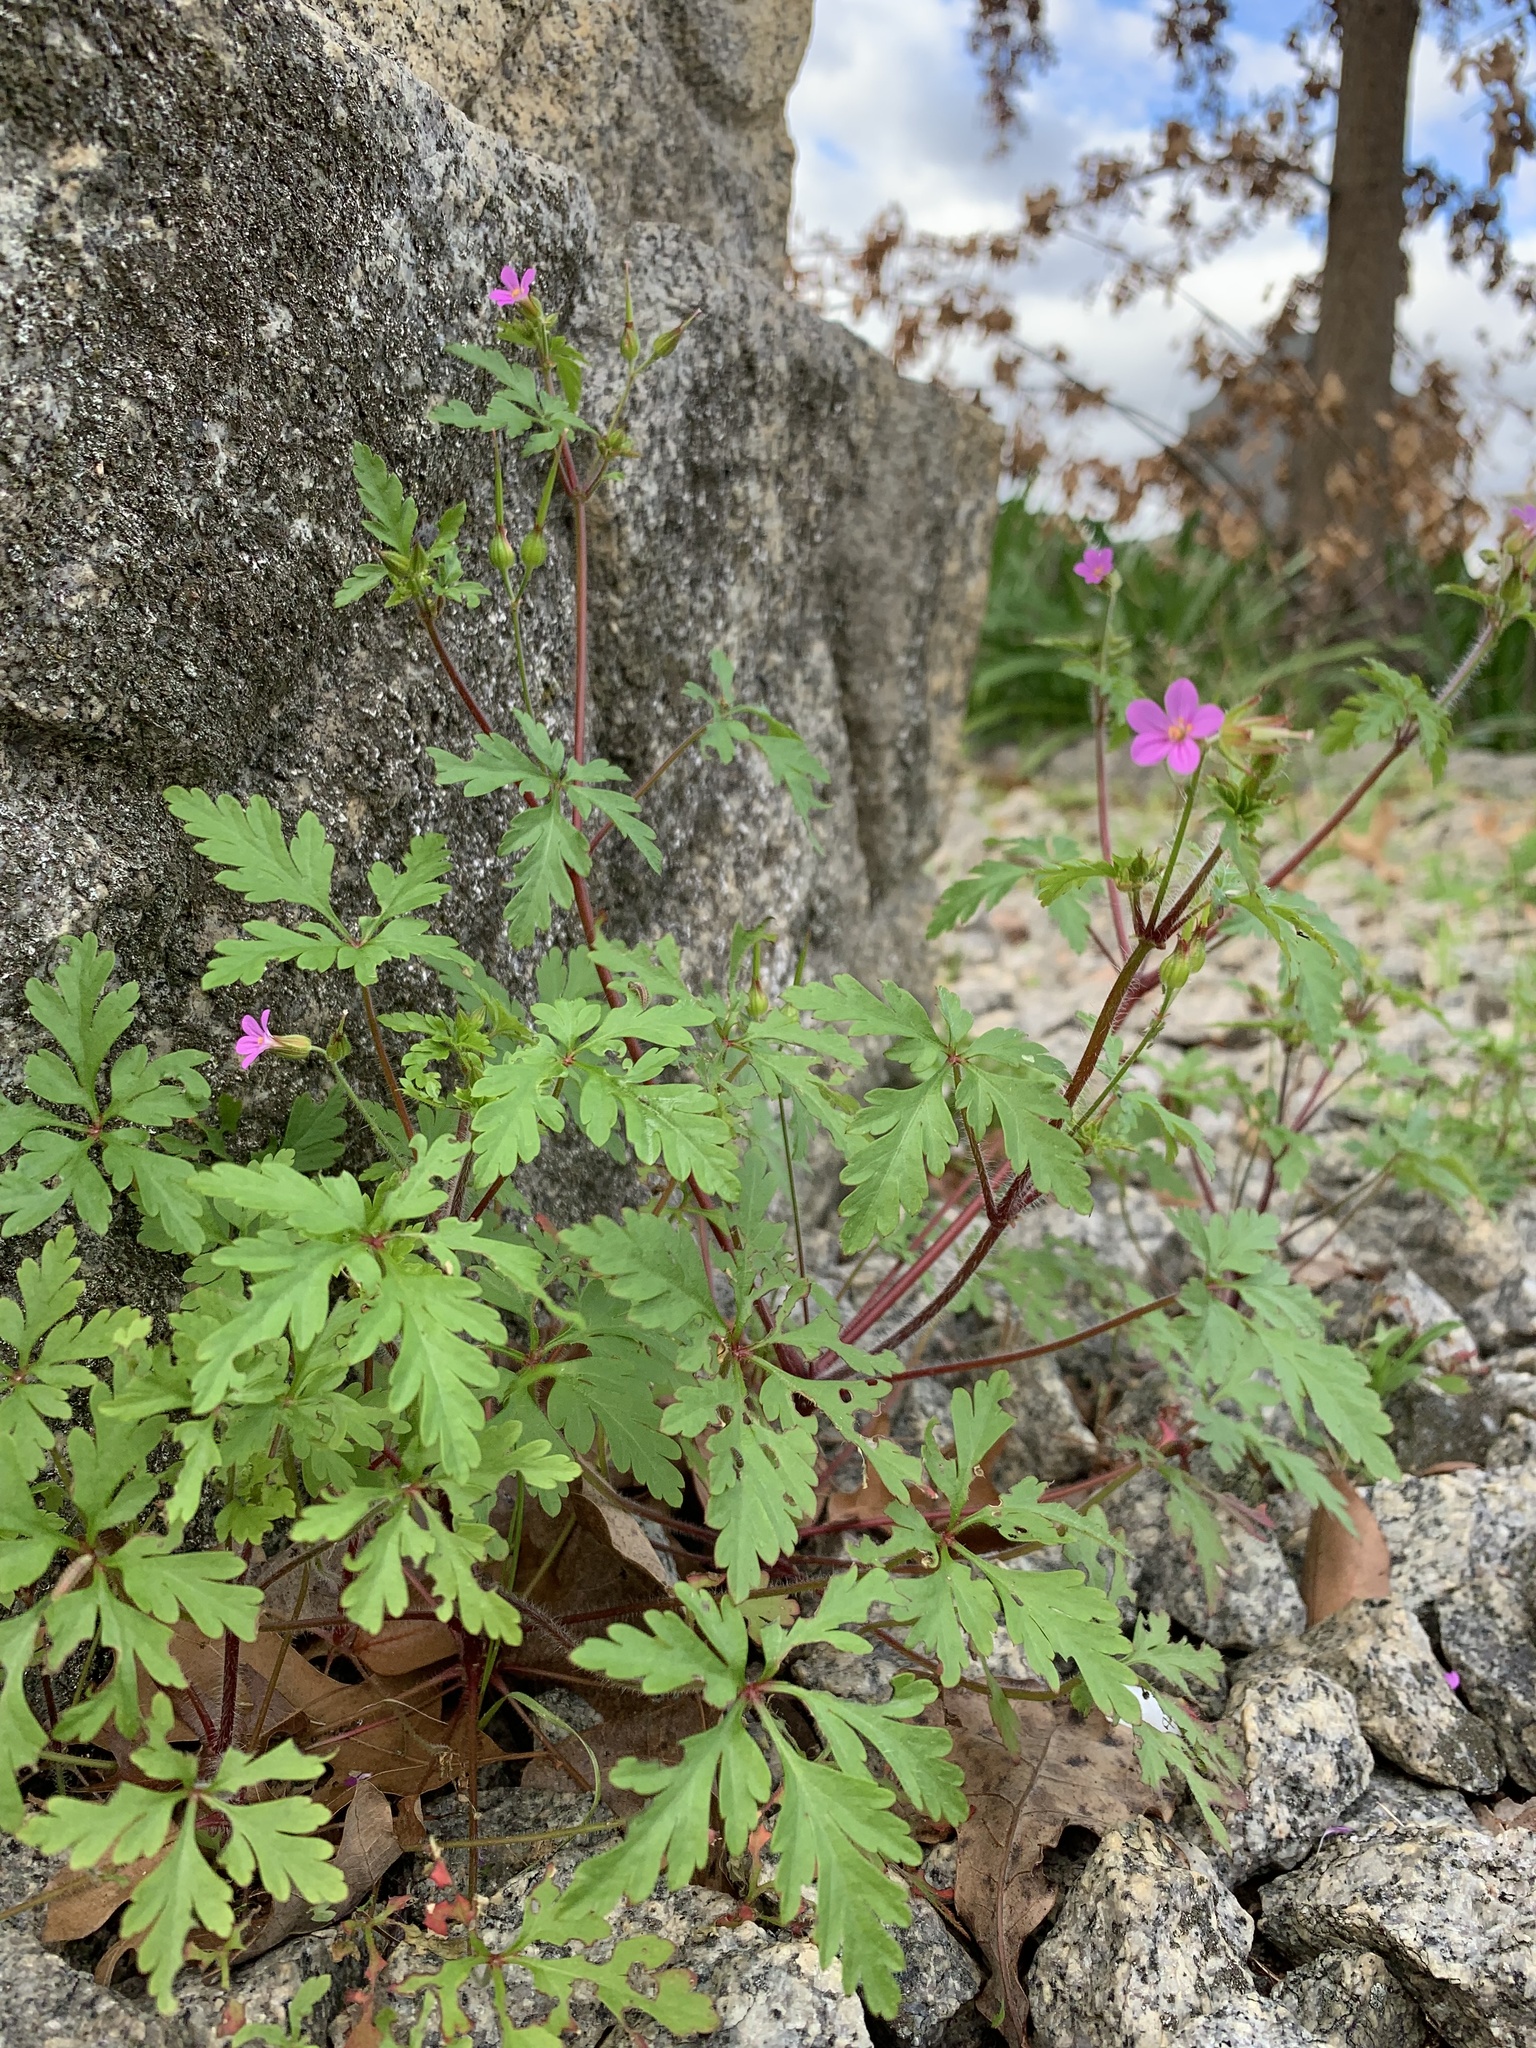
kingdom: Plantae
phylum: Tracheophyta
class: Magnoliopsida
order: Geraniales
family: Geraniaceae
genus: Geranium
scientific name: Geranium purpureum
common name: Little-robin
